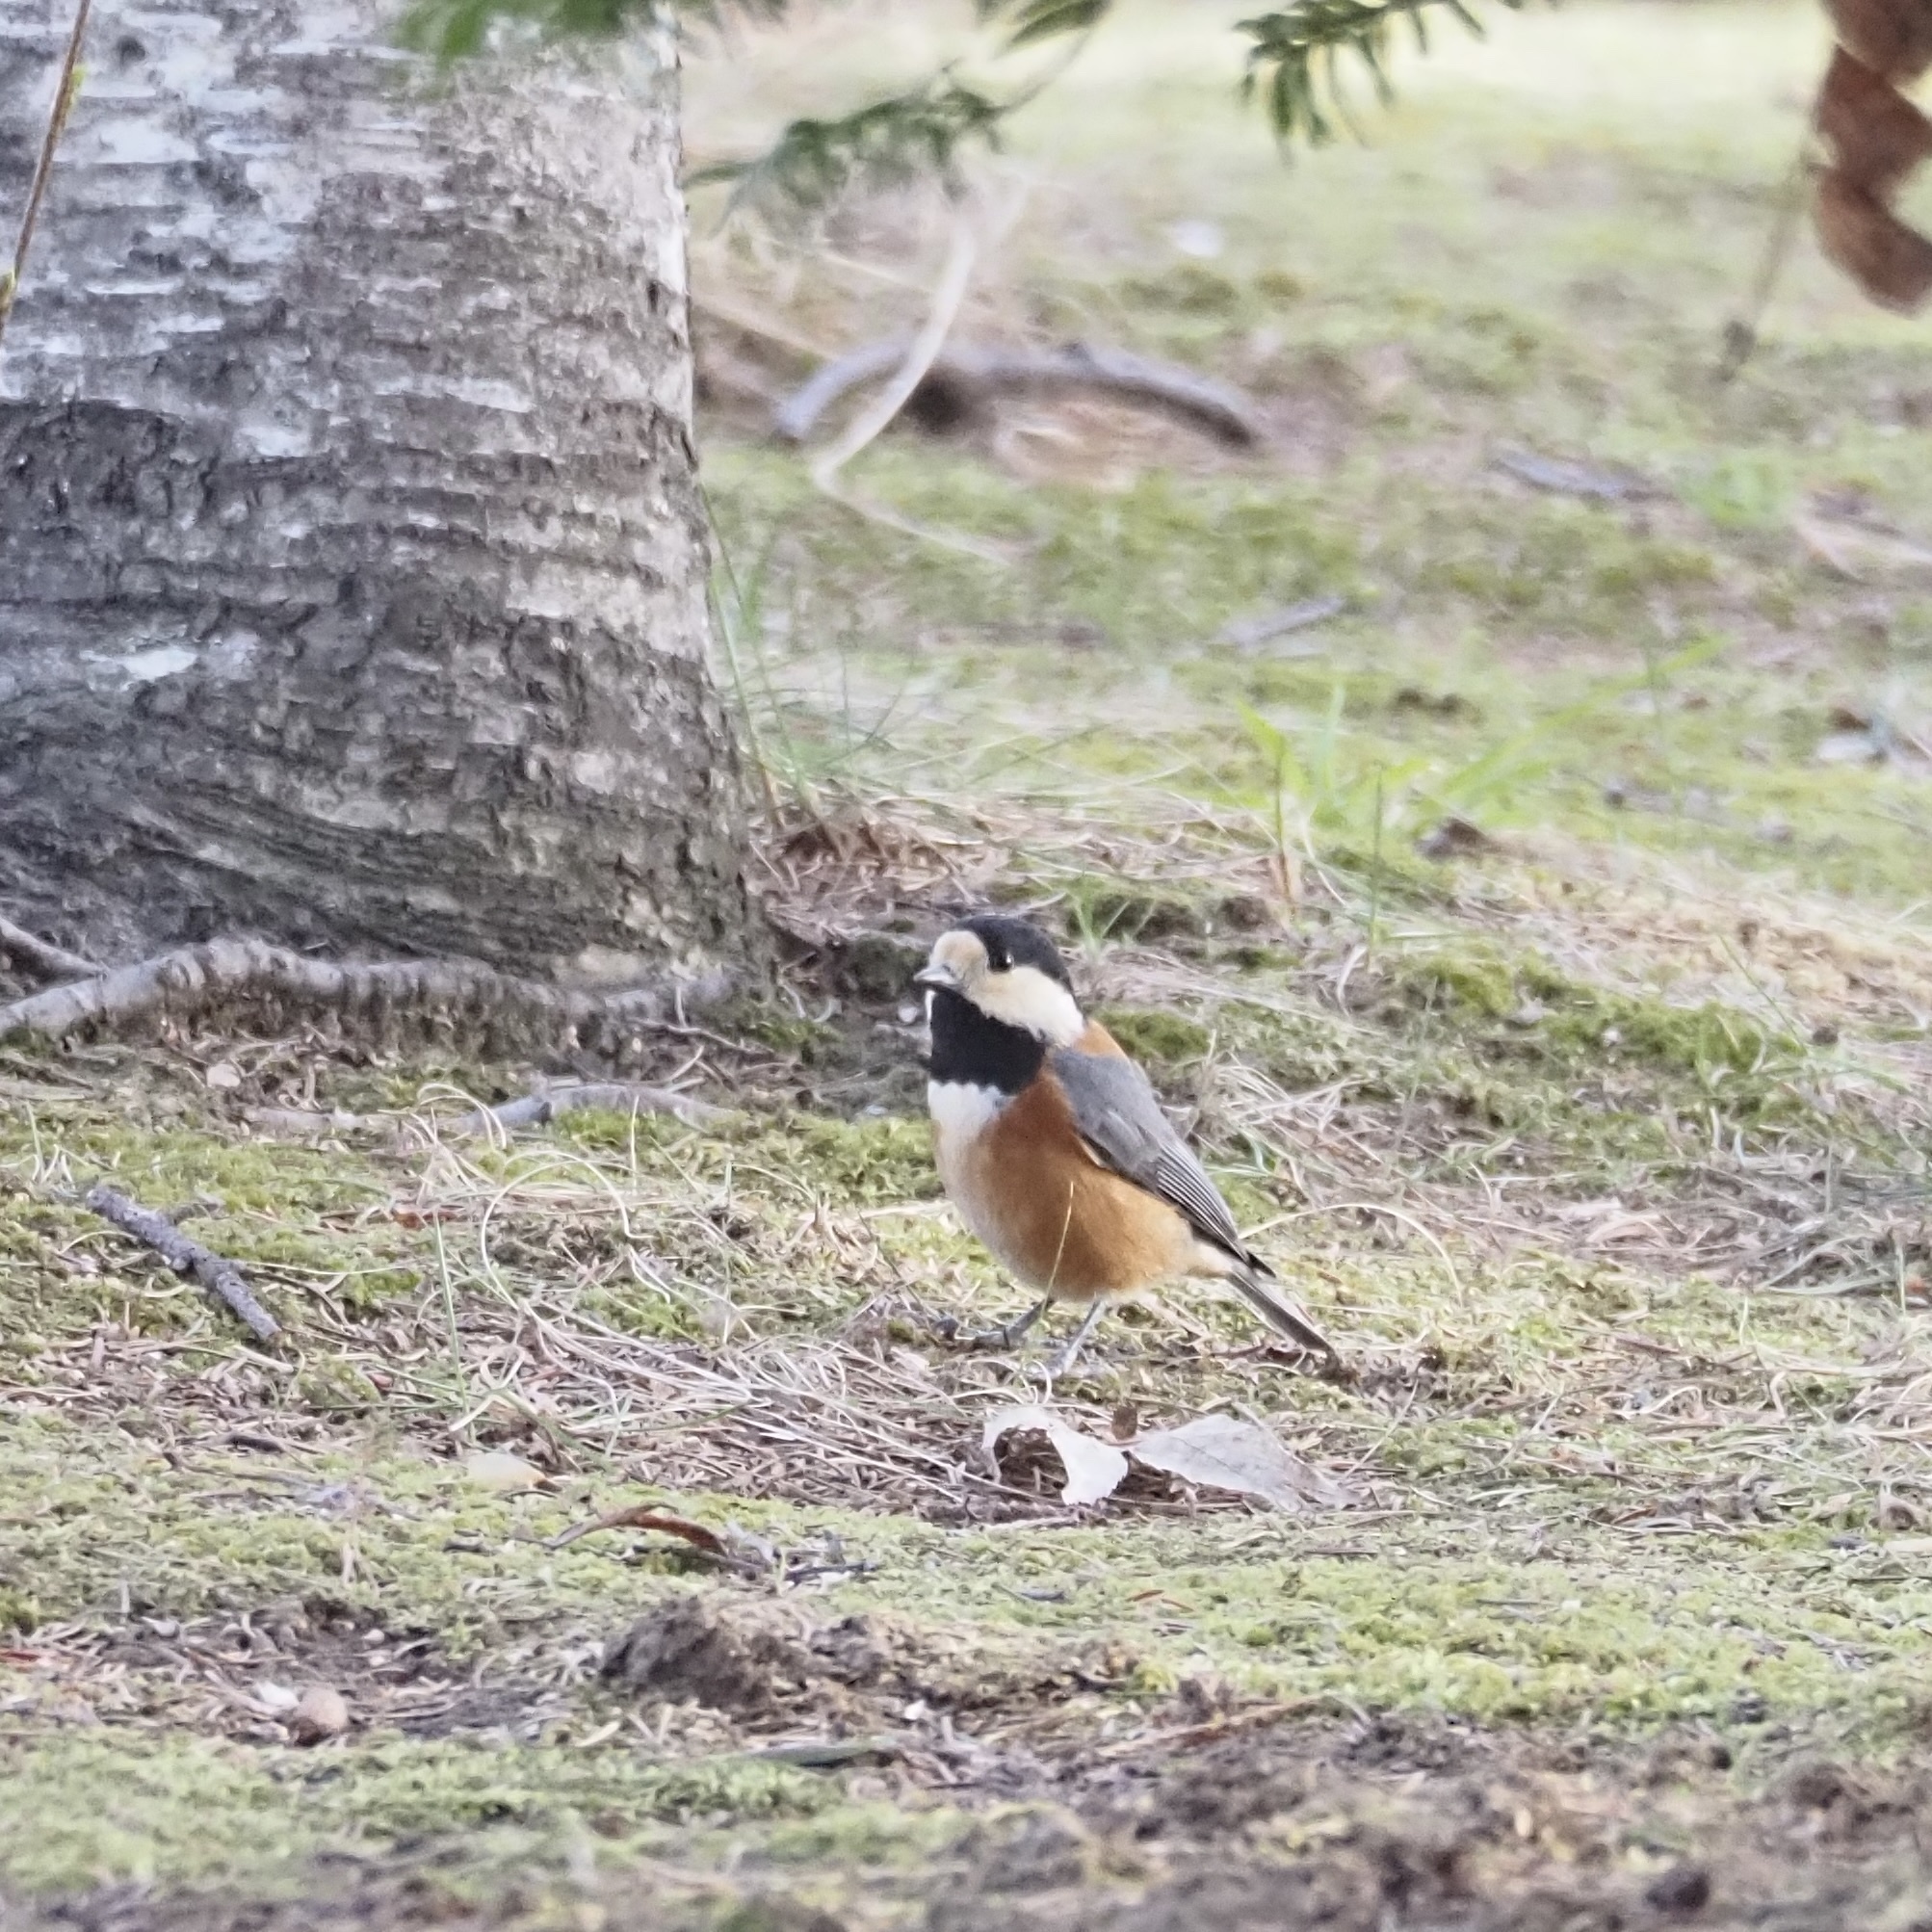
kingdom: Animalia
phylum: Chordata
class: Aves
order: Passeriformes
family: Paridae
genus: Poecile
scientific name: Poecile varius
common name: Varied tit
